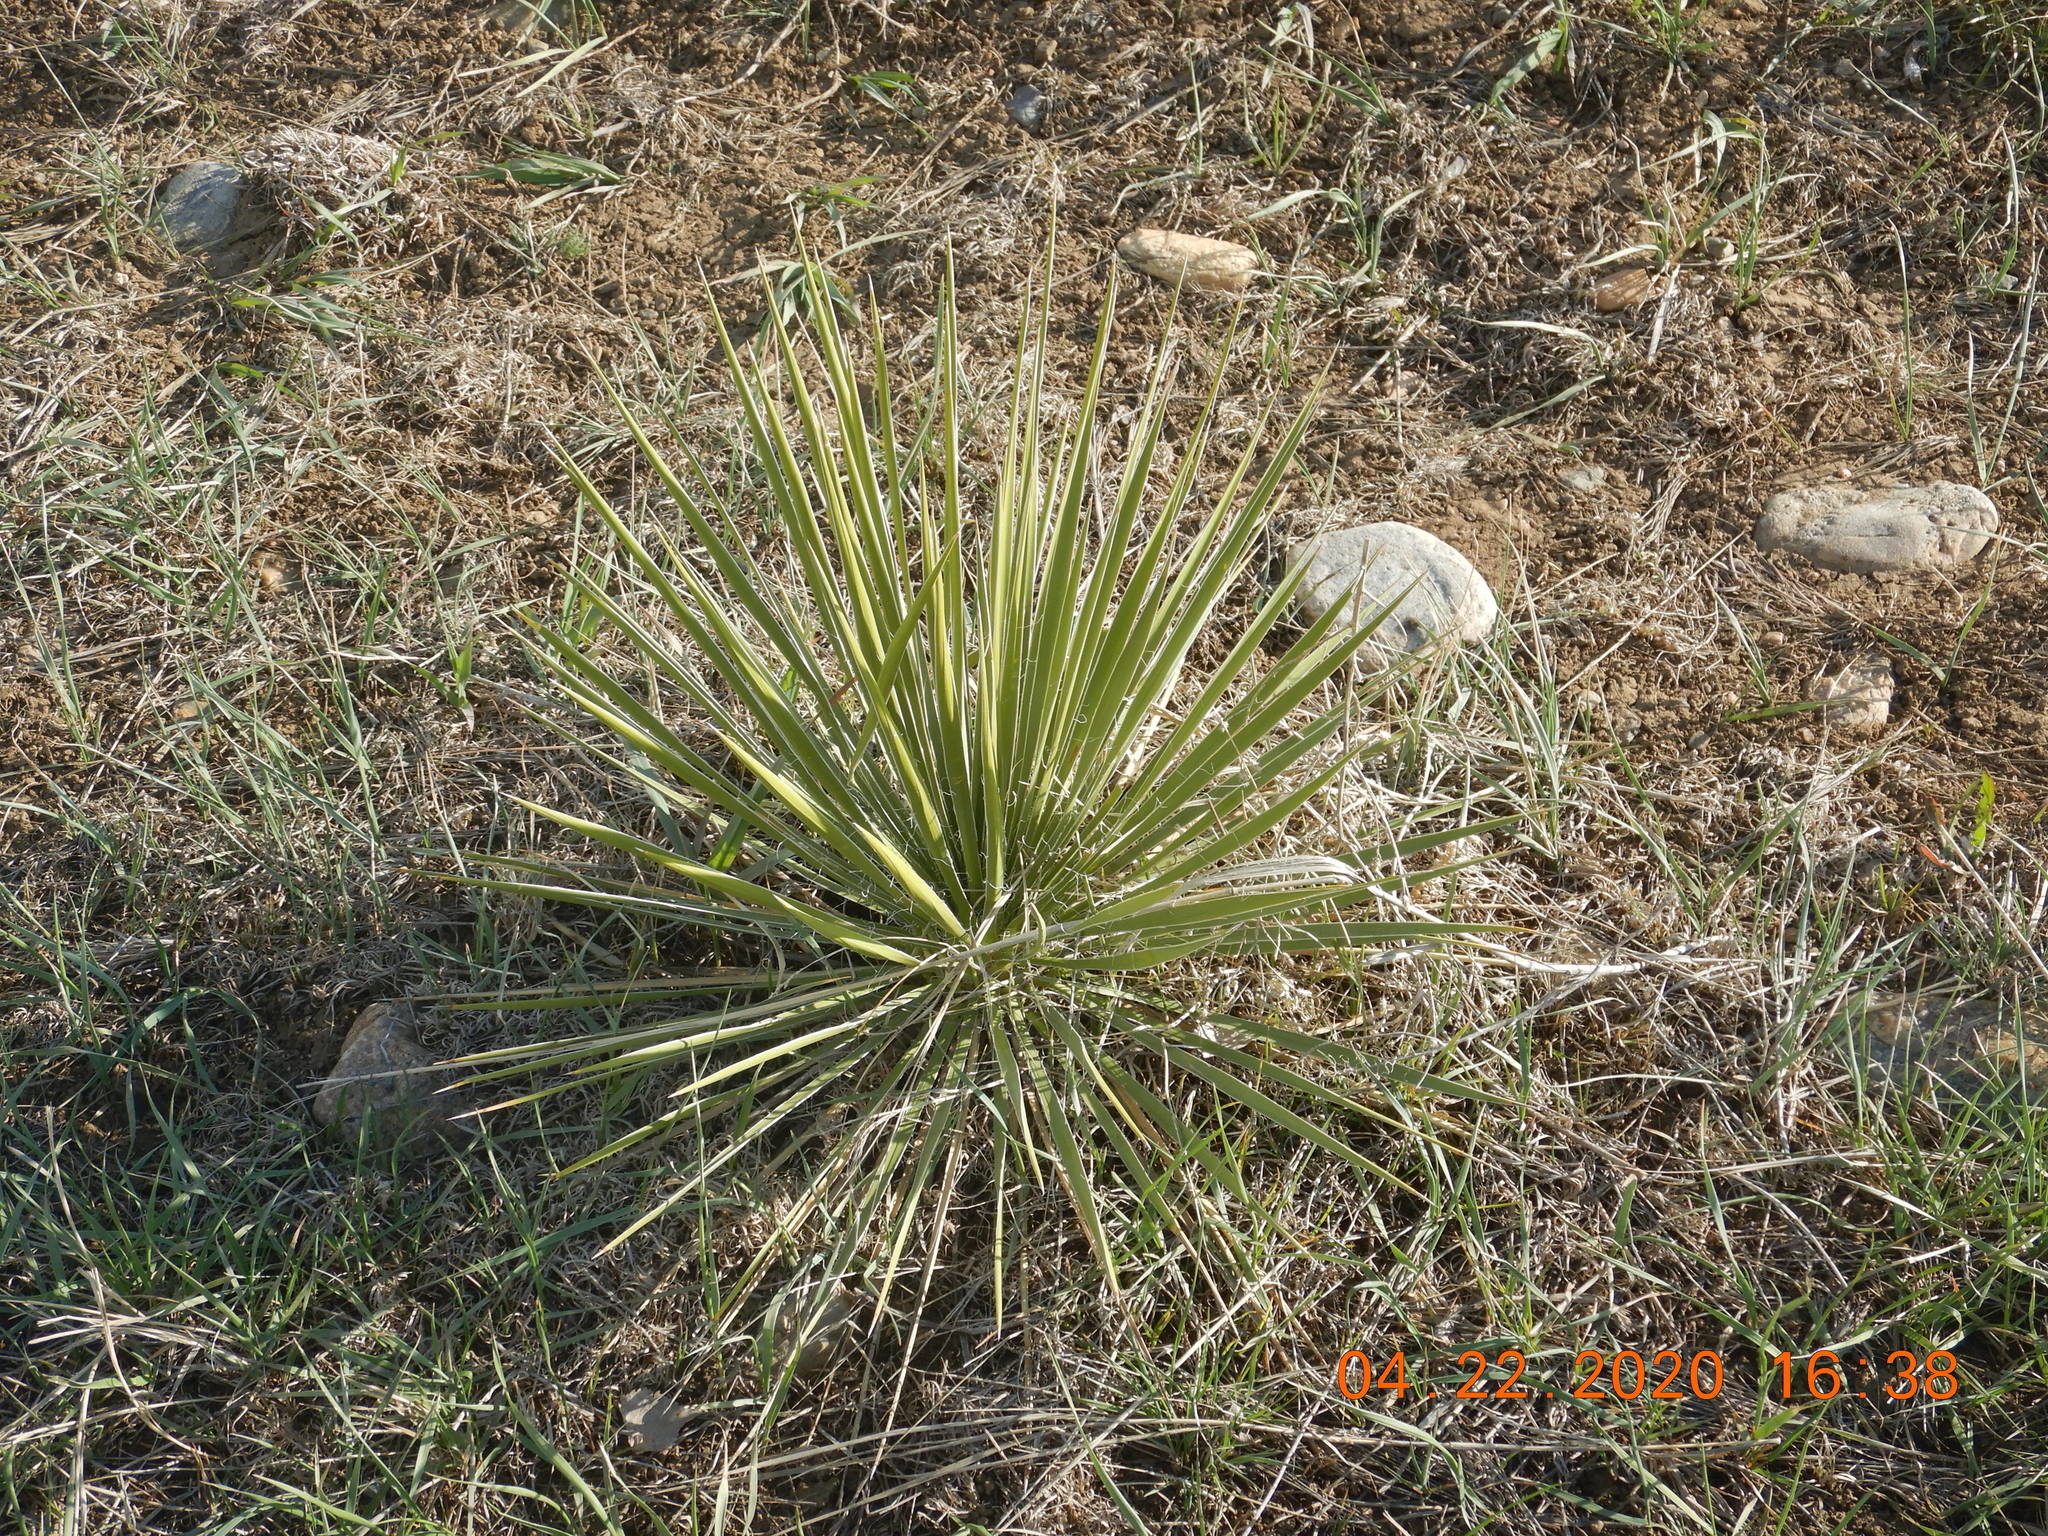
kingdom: Plantae
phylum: Tracheophyta
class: Liliopsida
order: Asparagales
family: Asparagaceae
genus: Yucca
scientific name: Yucca glauca
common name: Great plains yucca
